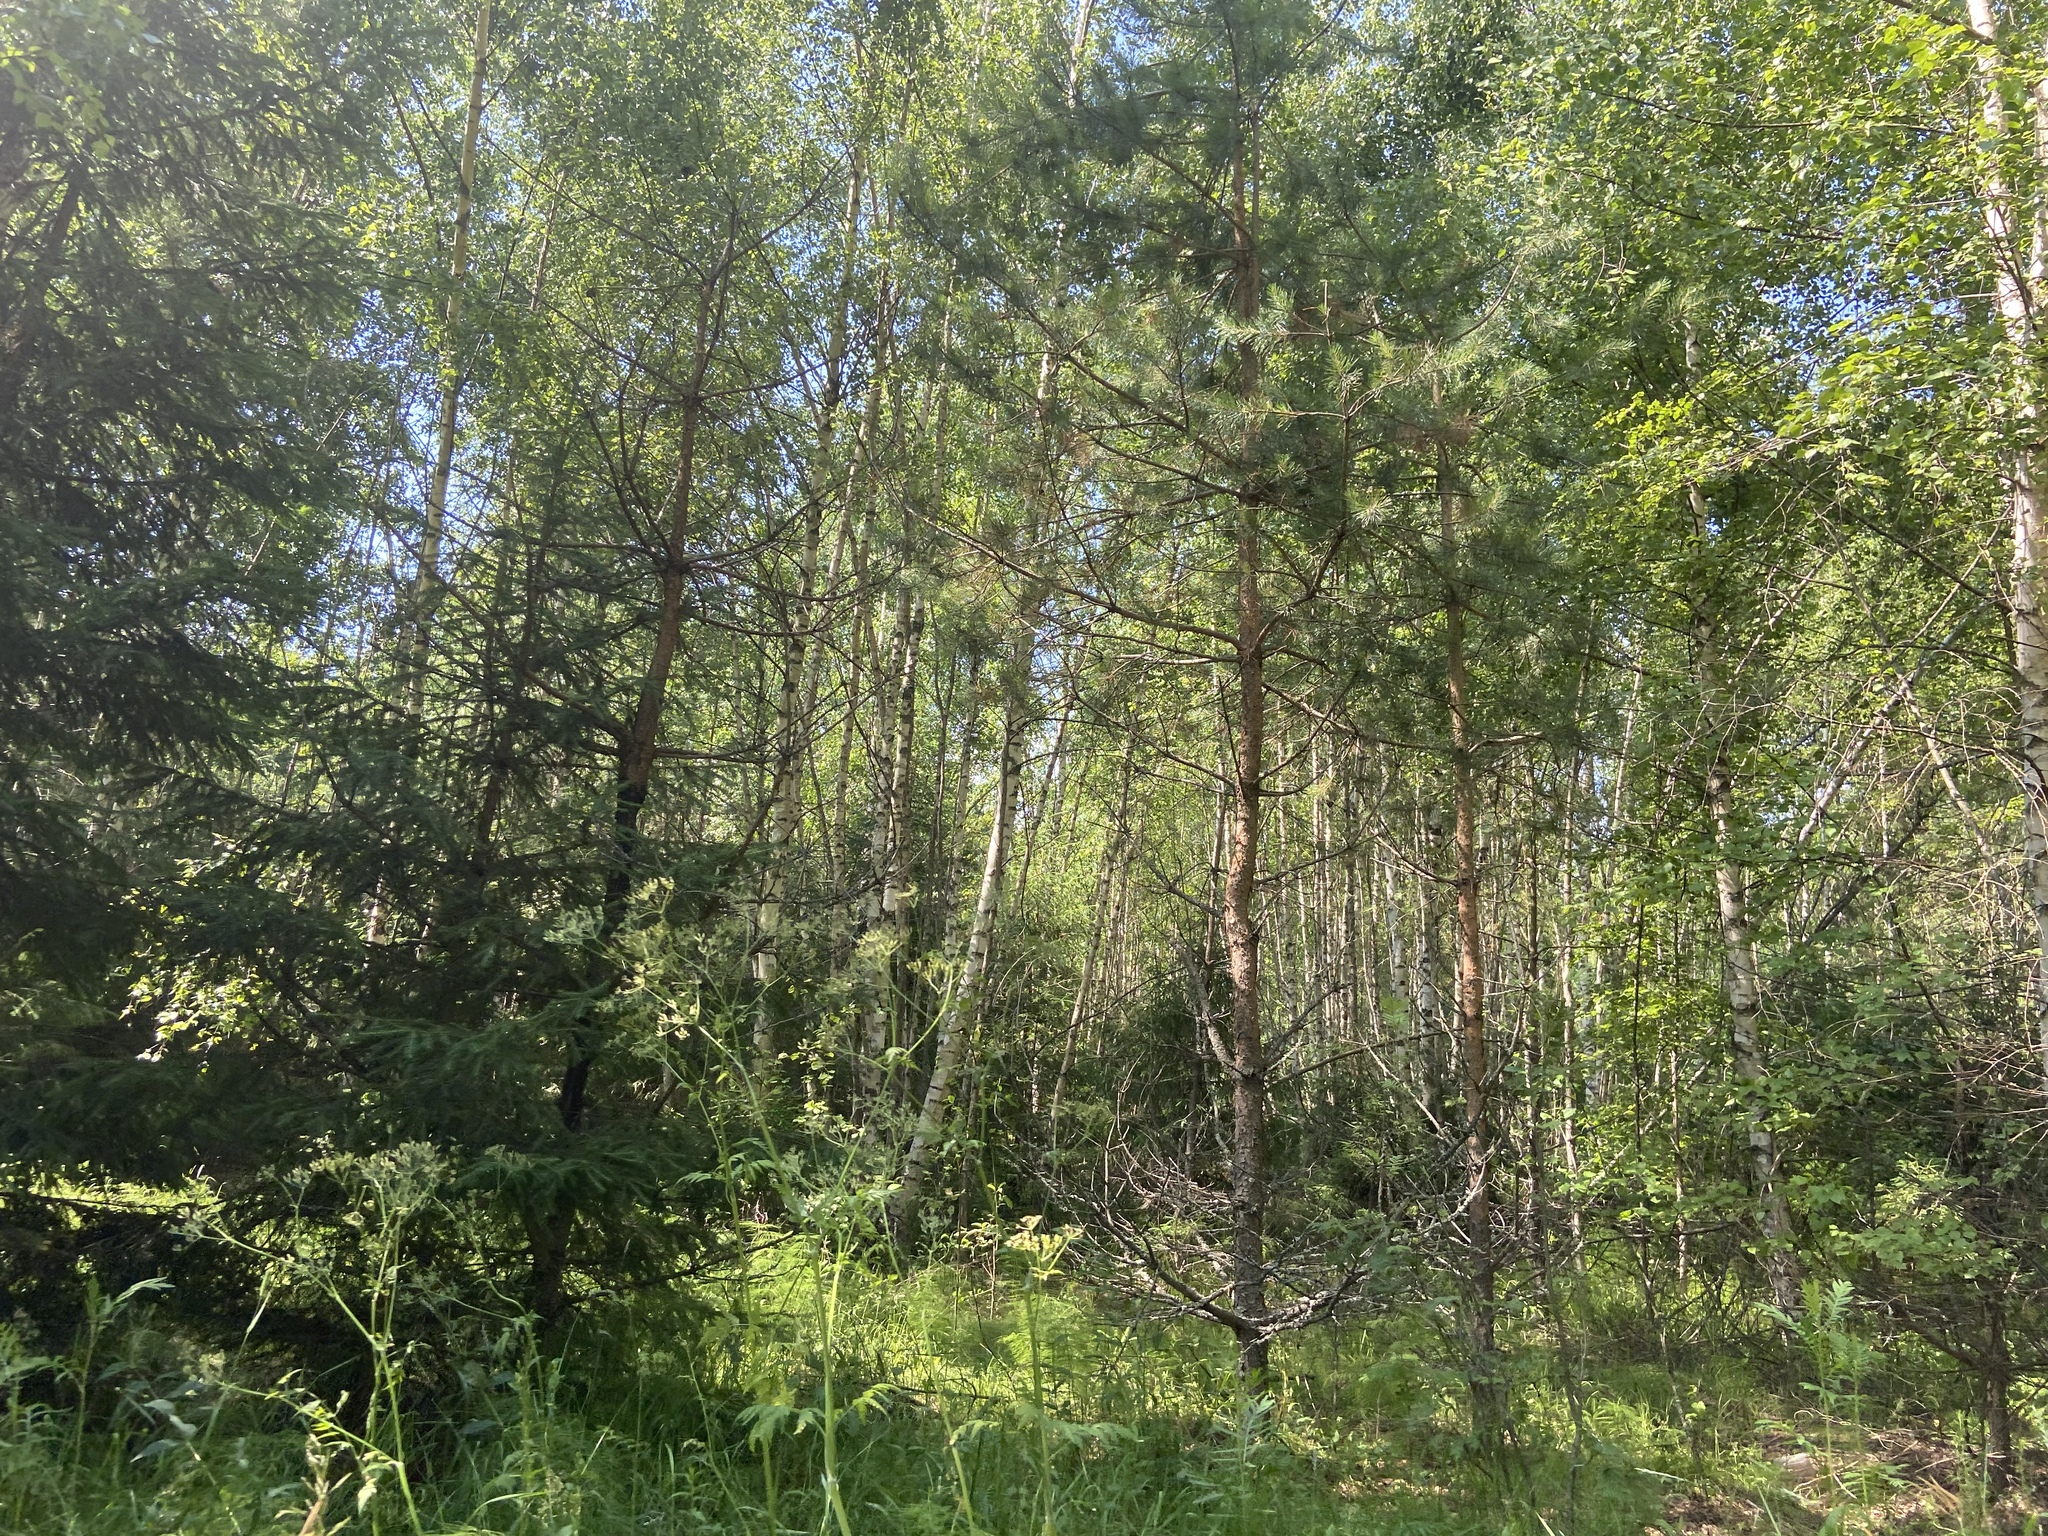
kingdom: Plantae
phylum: Tracheophyta
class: Pinopsida
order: Pinales
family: Pinaceae
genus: Pinus
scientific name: Pinus sylvestris
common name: Scots pine
